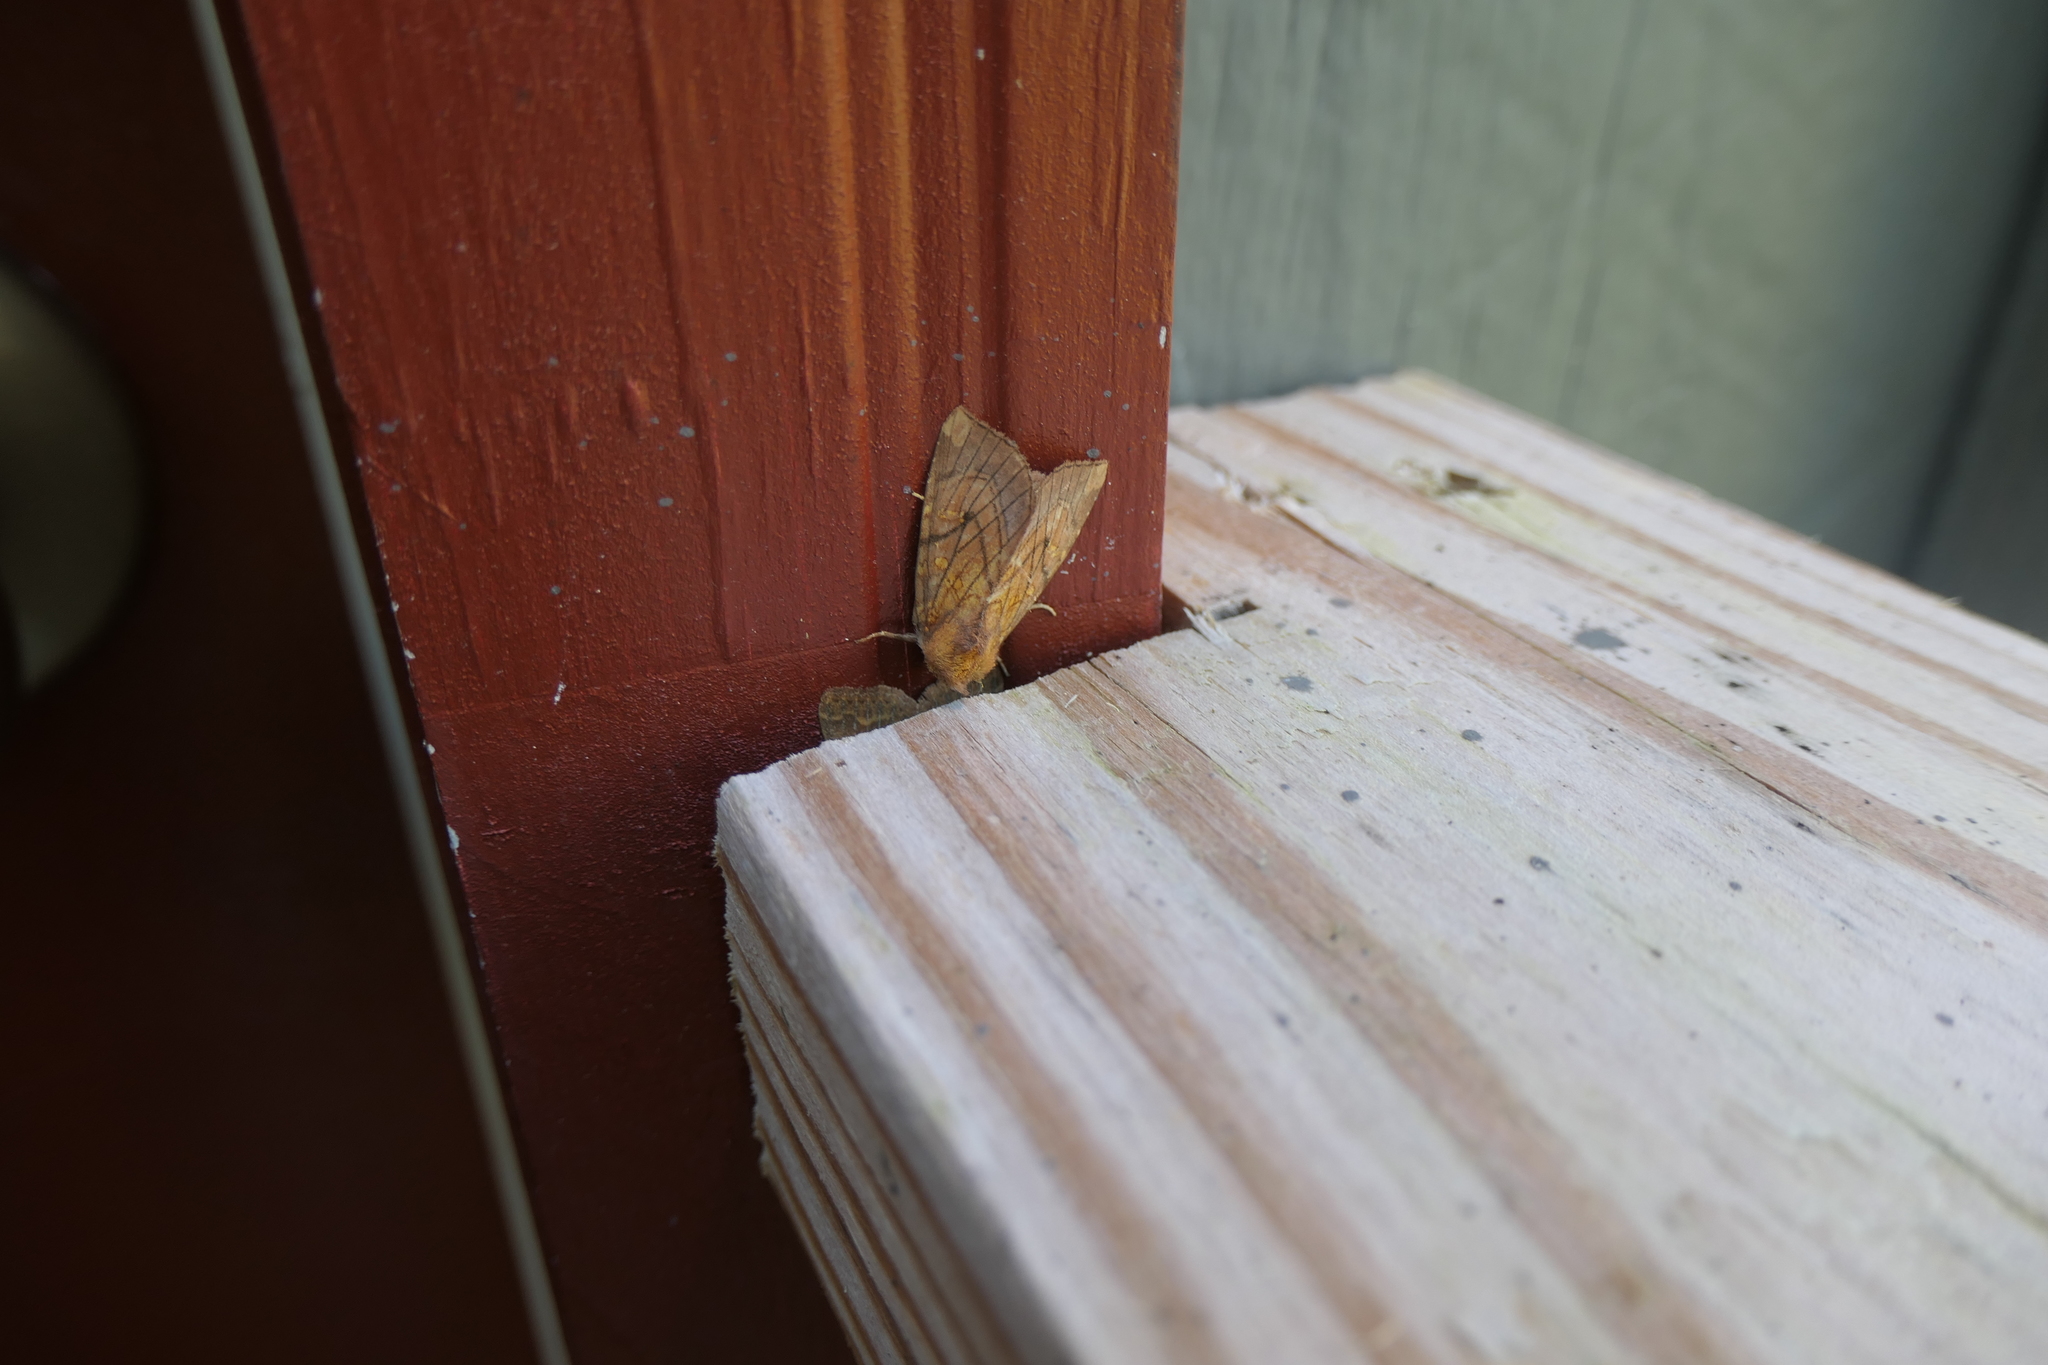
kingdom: Animalia
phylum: Arthropoda
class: Insecta
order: Lepidoptera
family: Noctuidae
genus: Papaipema
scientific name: Papaipema inquaesita
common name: Sensitive fern borer moth
